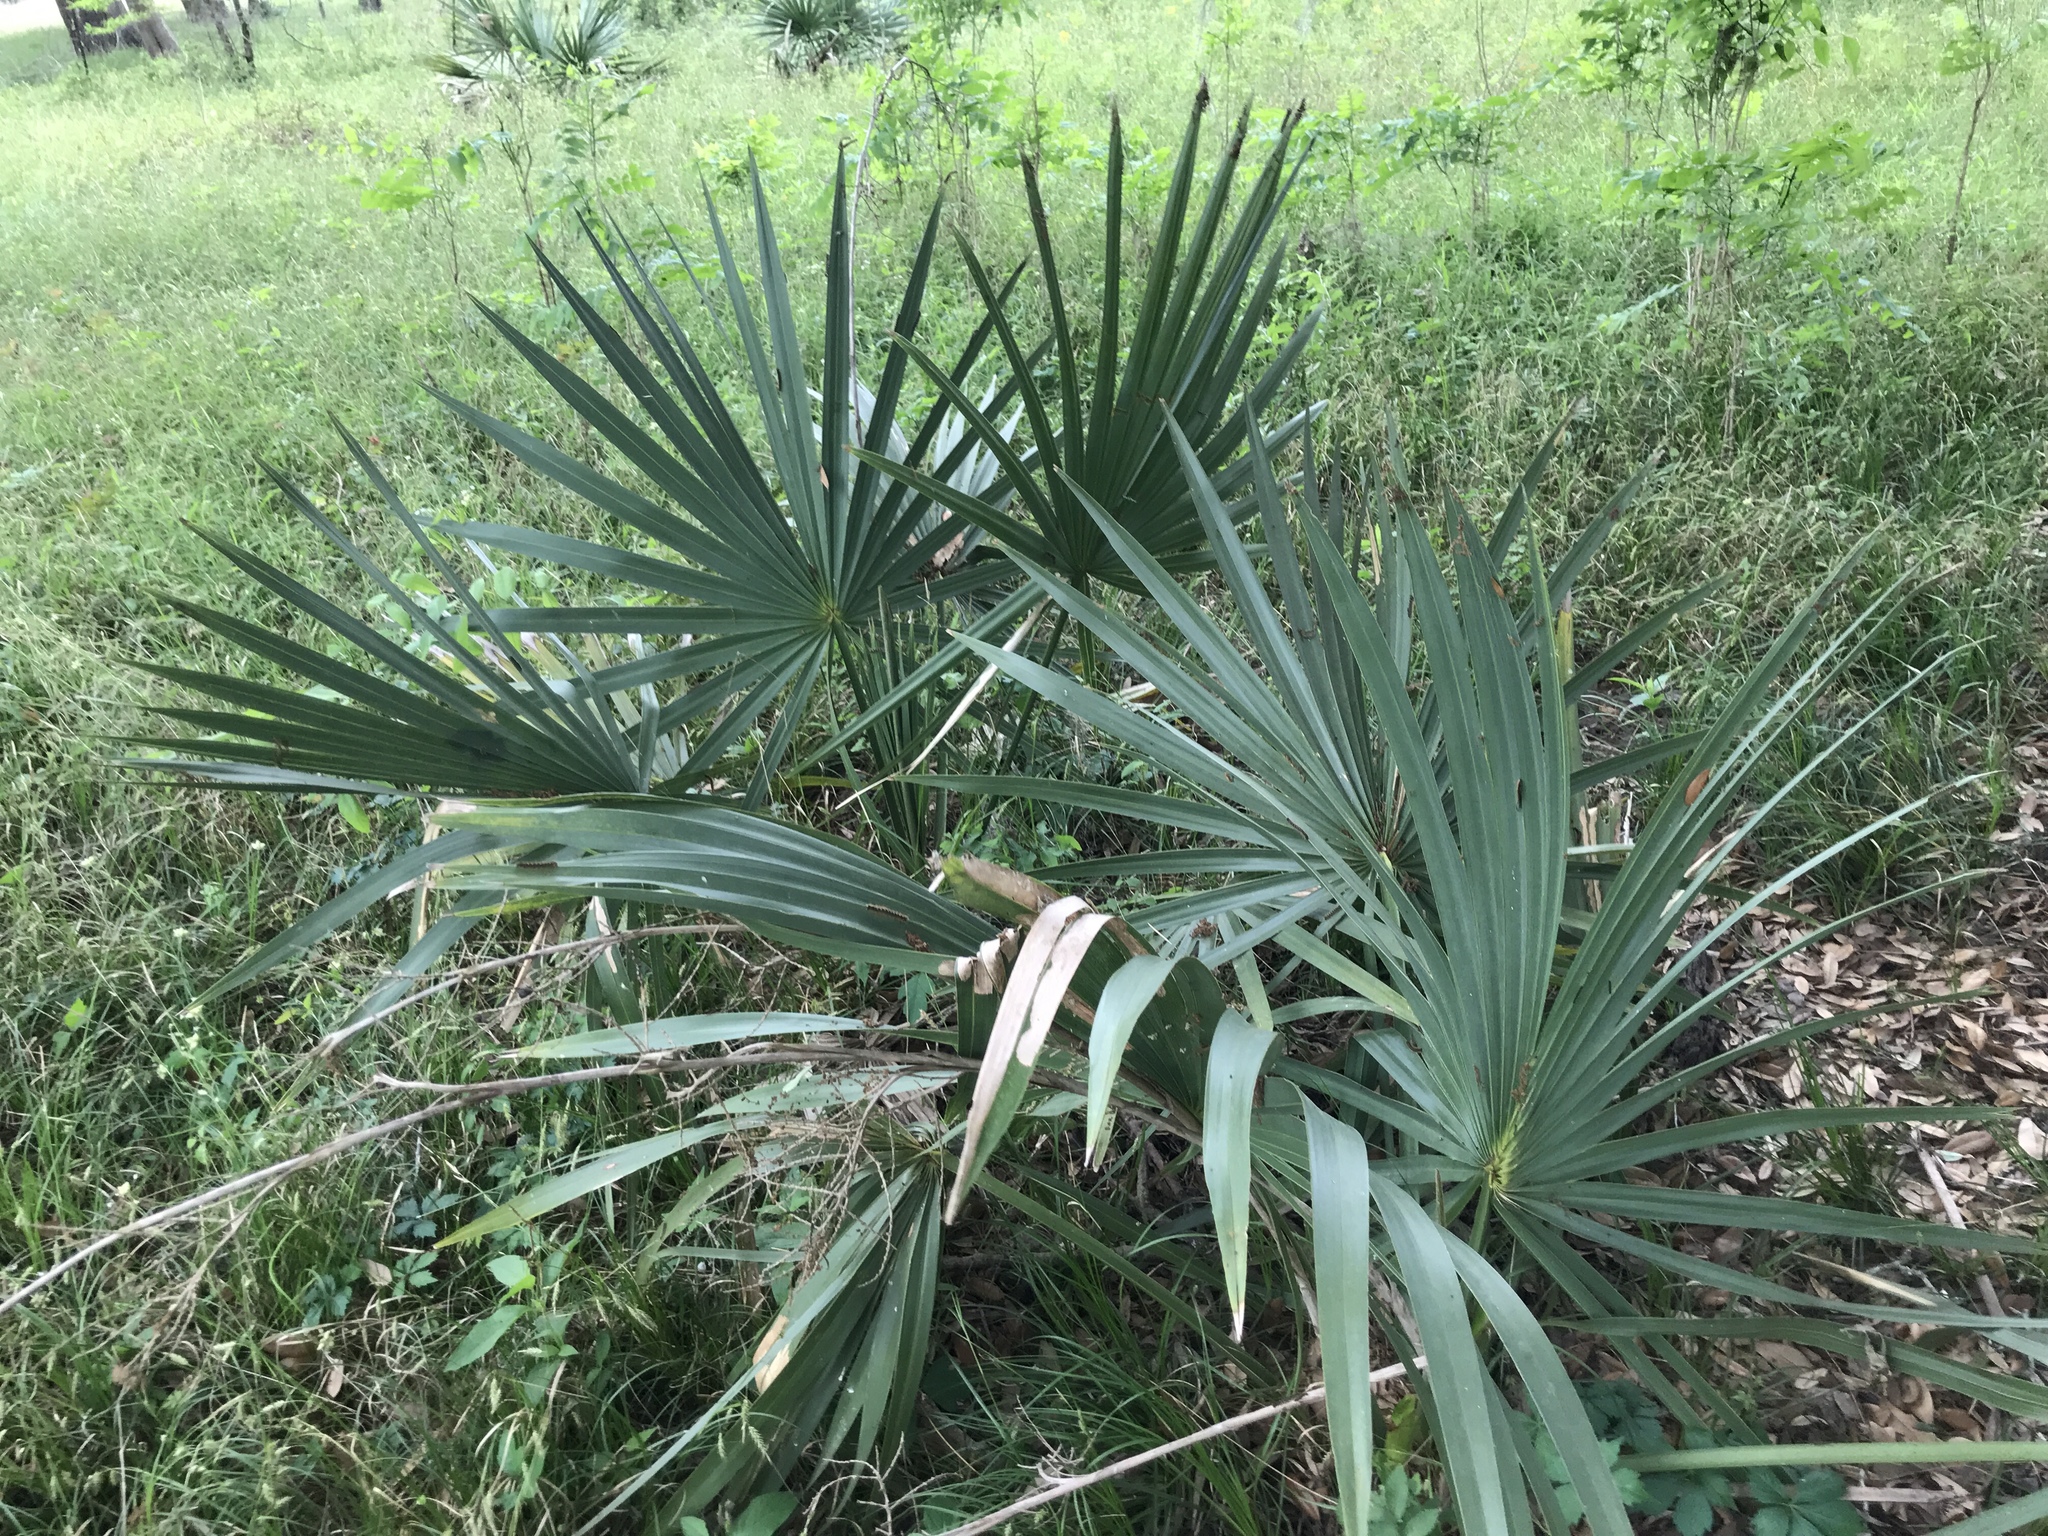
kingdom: Plantae
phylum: Tracheophyta
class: Liliopsida
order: Arecales
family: Arecaceae
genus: Sabal
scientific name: Sabal minor
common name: Dwarf palmetto
